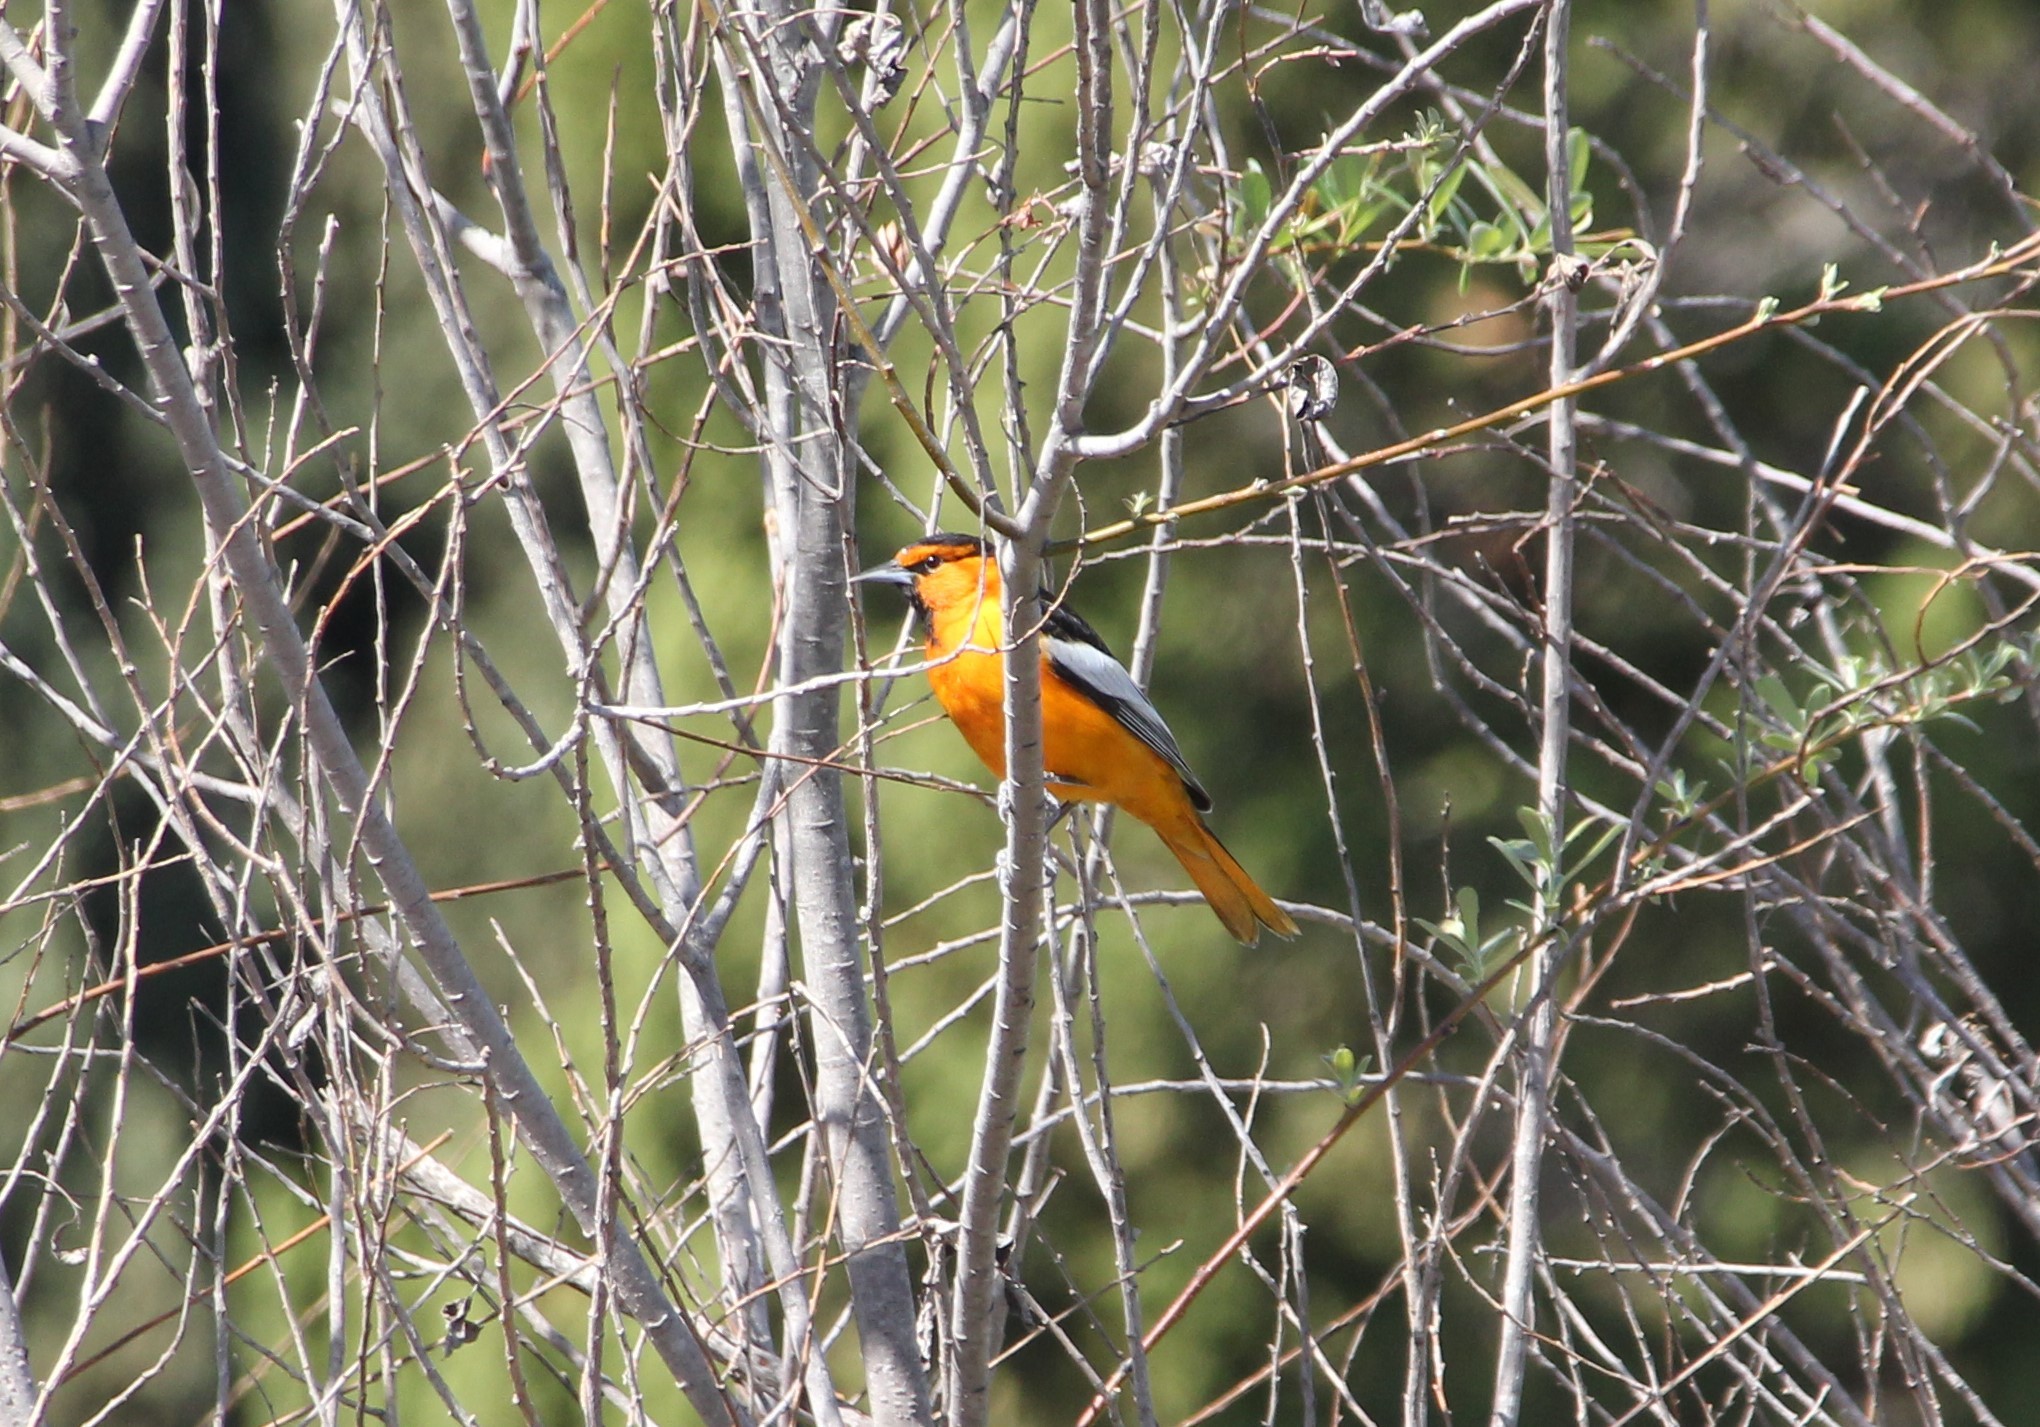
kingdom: Animalia
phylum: Chordata
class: Aves
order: Passeriformes
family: Icteridae
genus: Icterus
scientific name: Icterus bullockii
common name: Bullock's oriole
